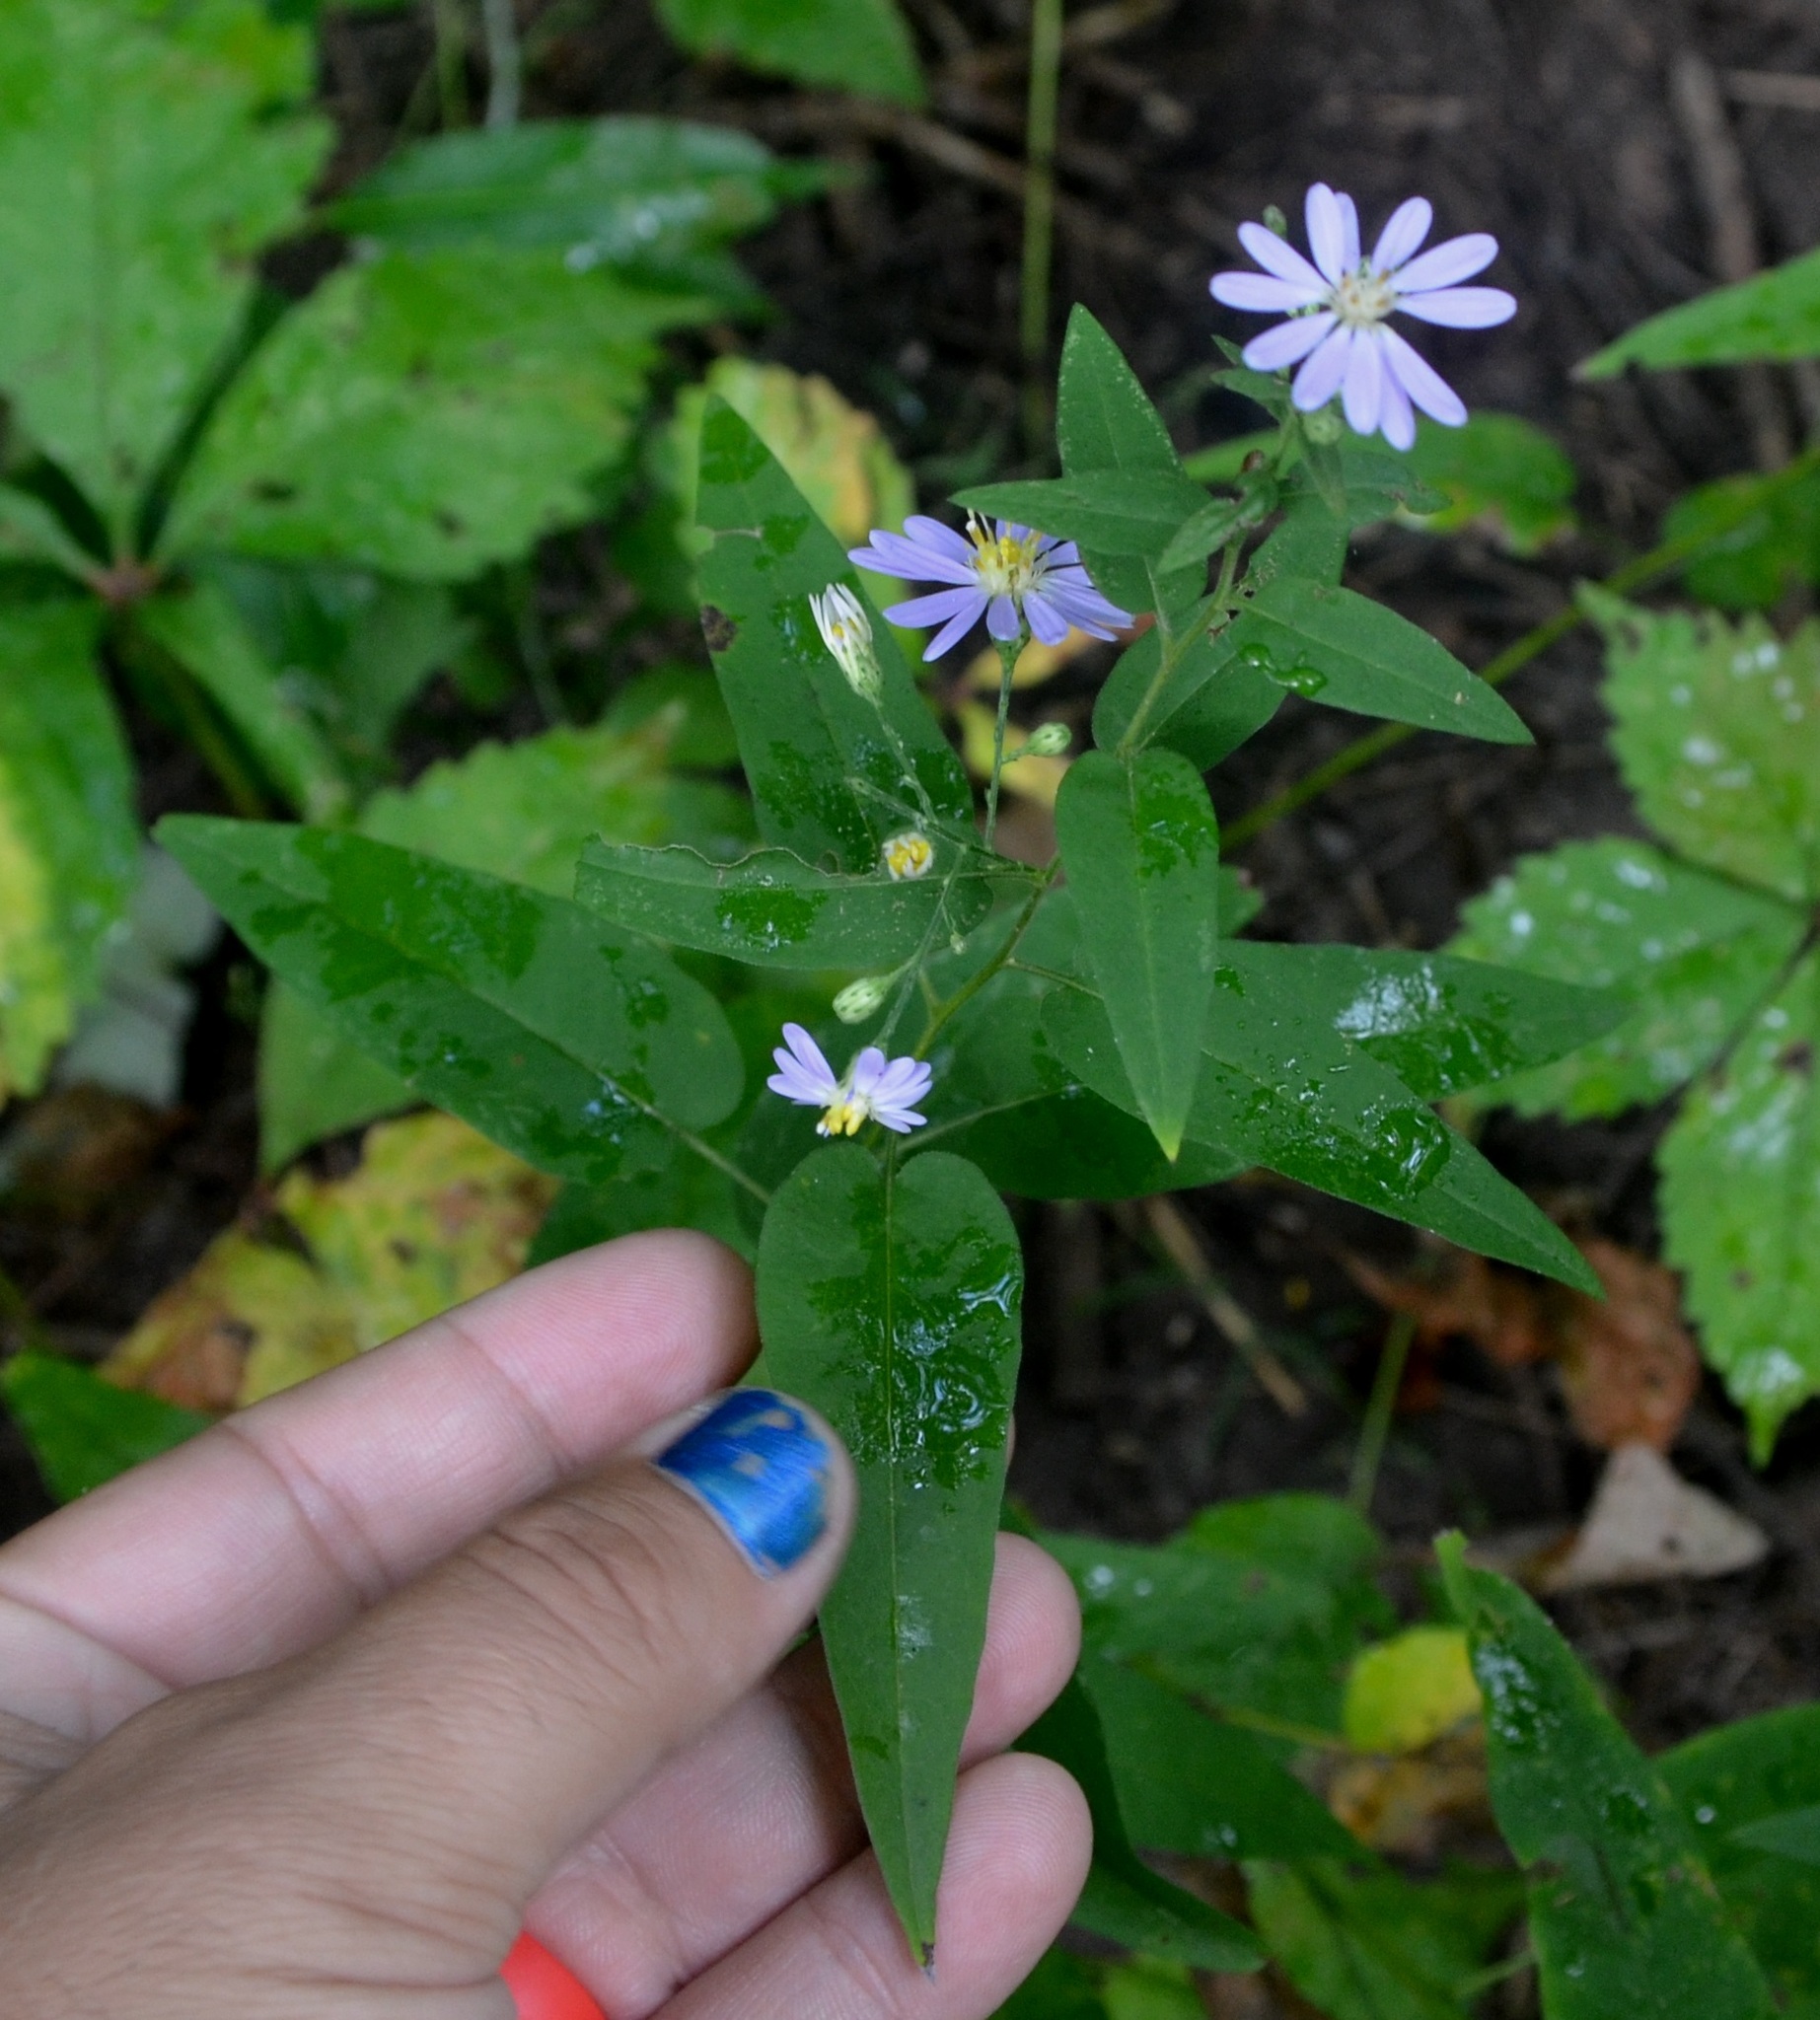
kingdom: Plantae
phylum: Tracheophyta
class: Magnoliopsida
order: Asterales
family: Asteraceae
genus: Symphyotrichum
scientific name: Symphyotrichum shortii
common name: Short's aster
